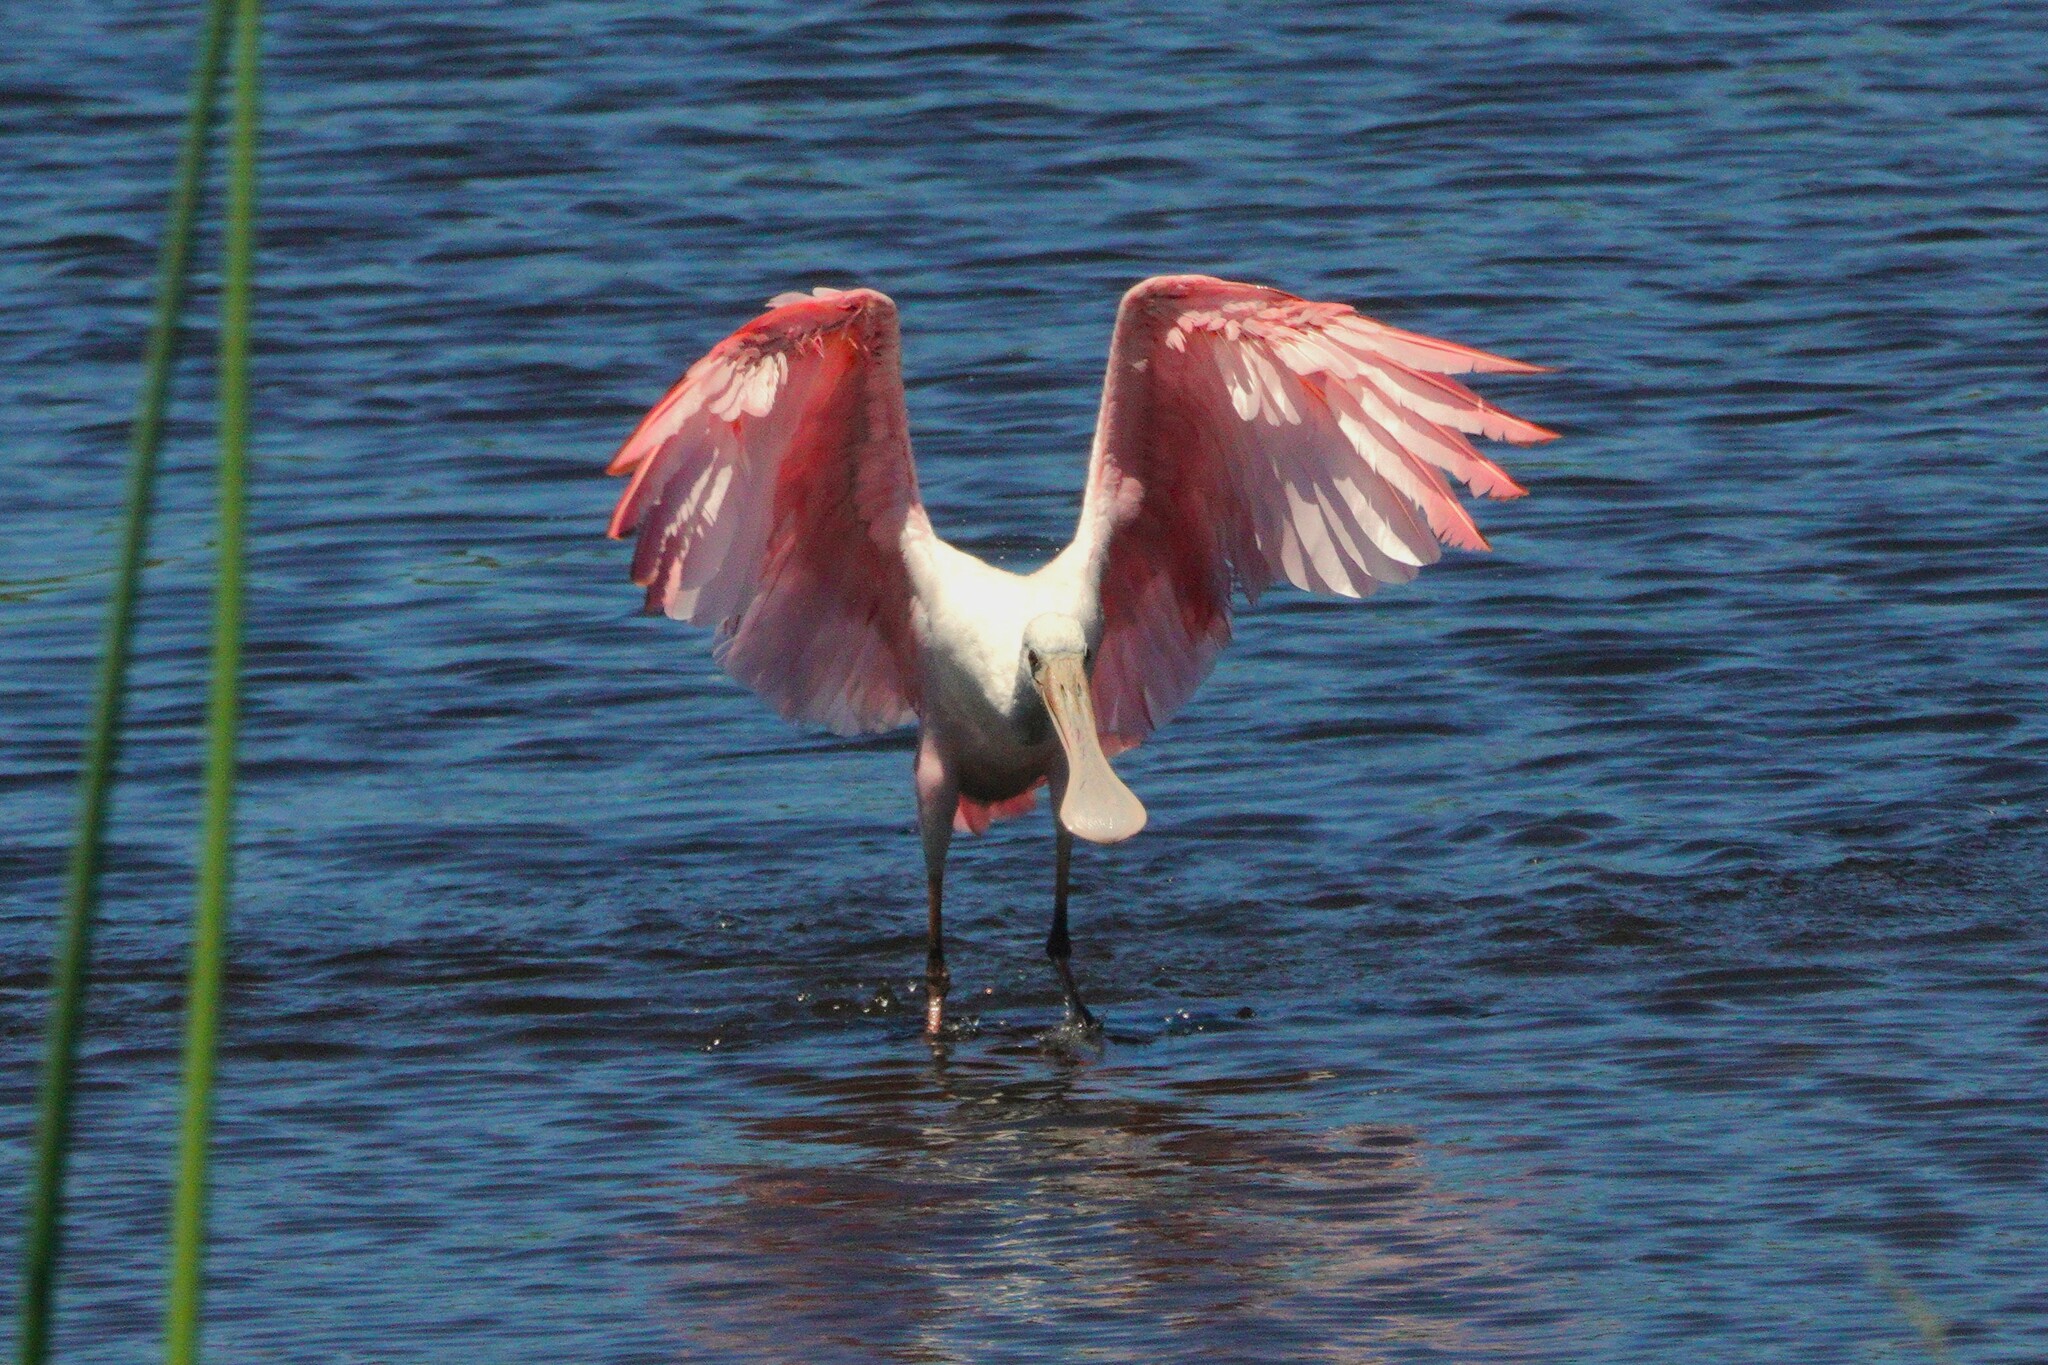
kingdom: Animalia
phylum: Chordata
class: Aves
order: Pelecaniformes
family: Threskiornithidae
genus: Platalea
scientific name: Platalea ajaja
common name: Roseate spoonbill
